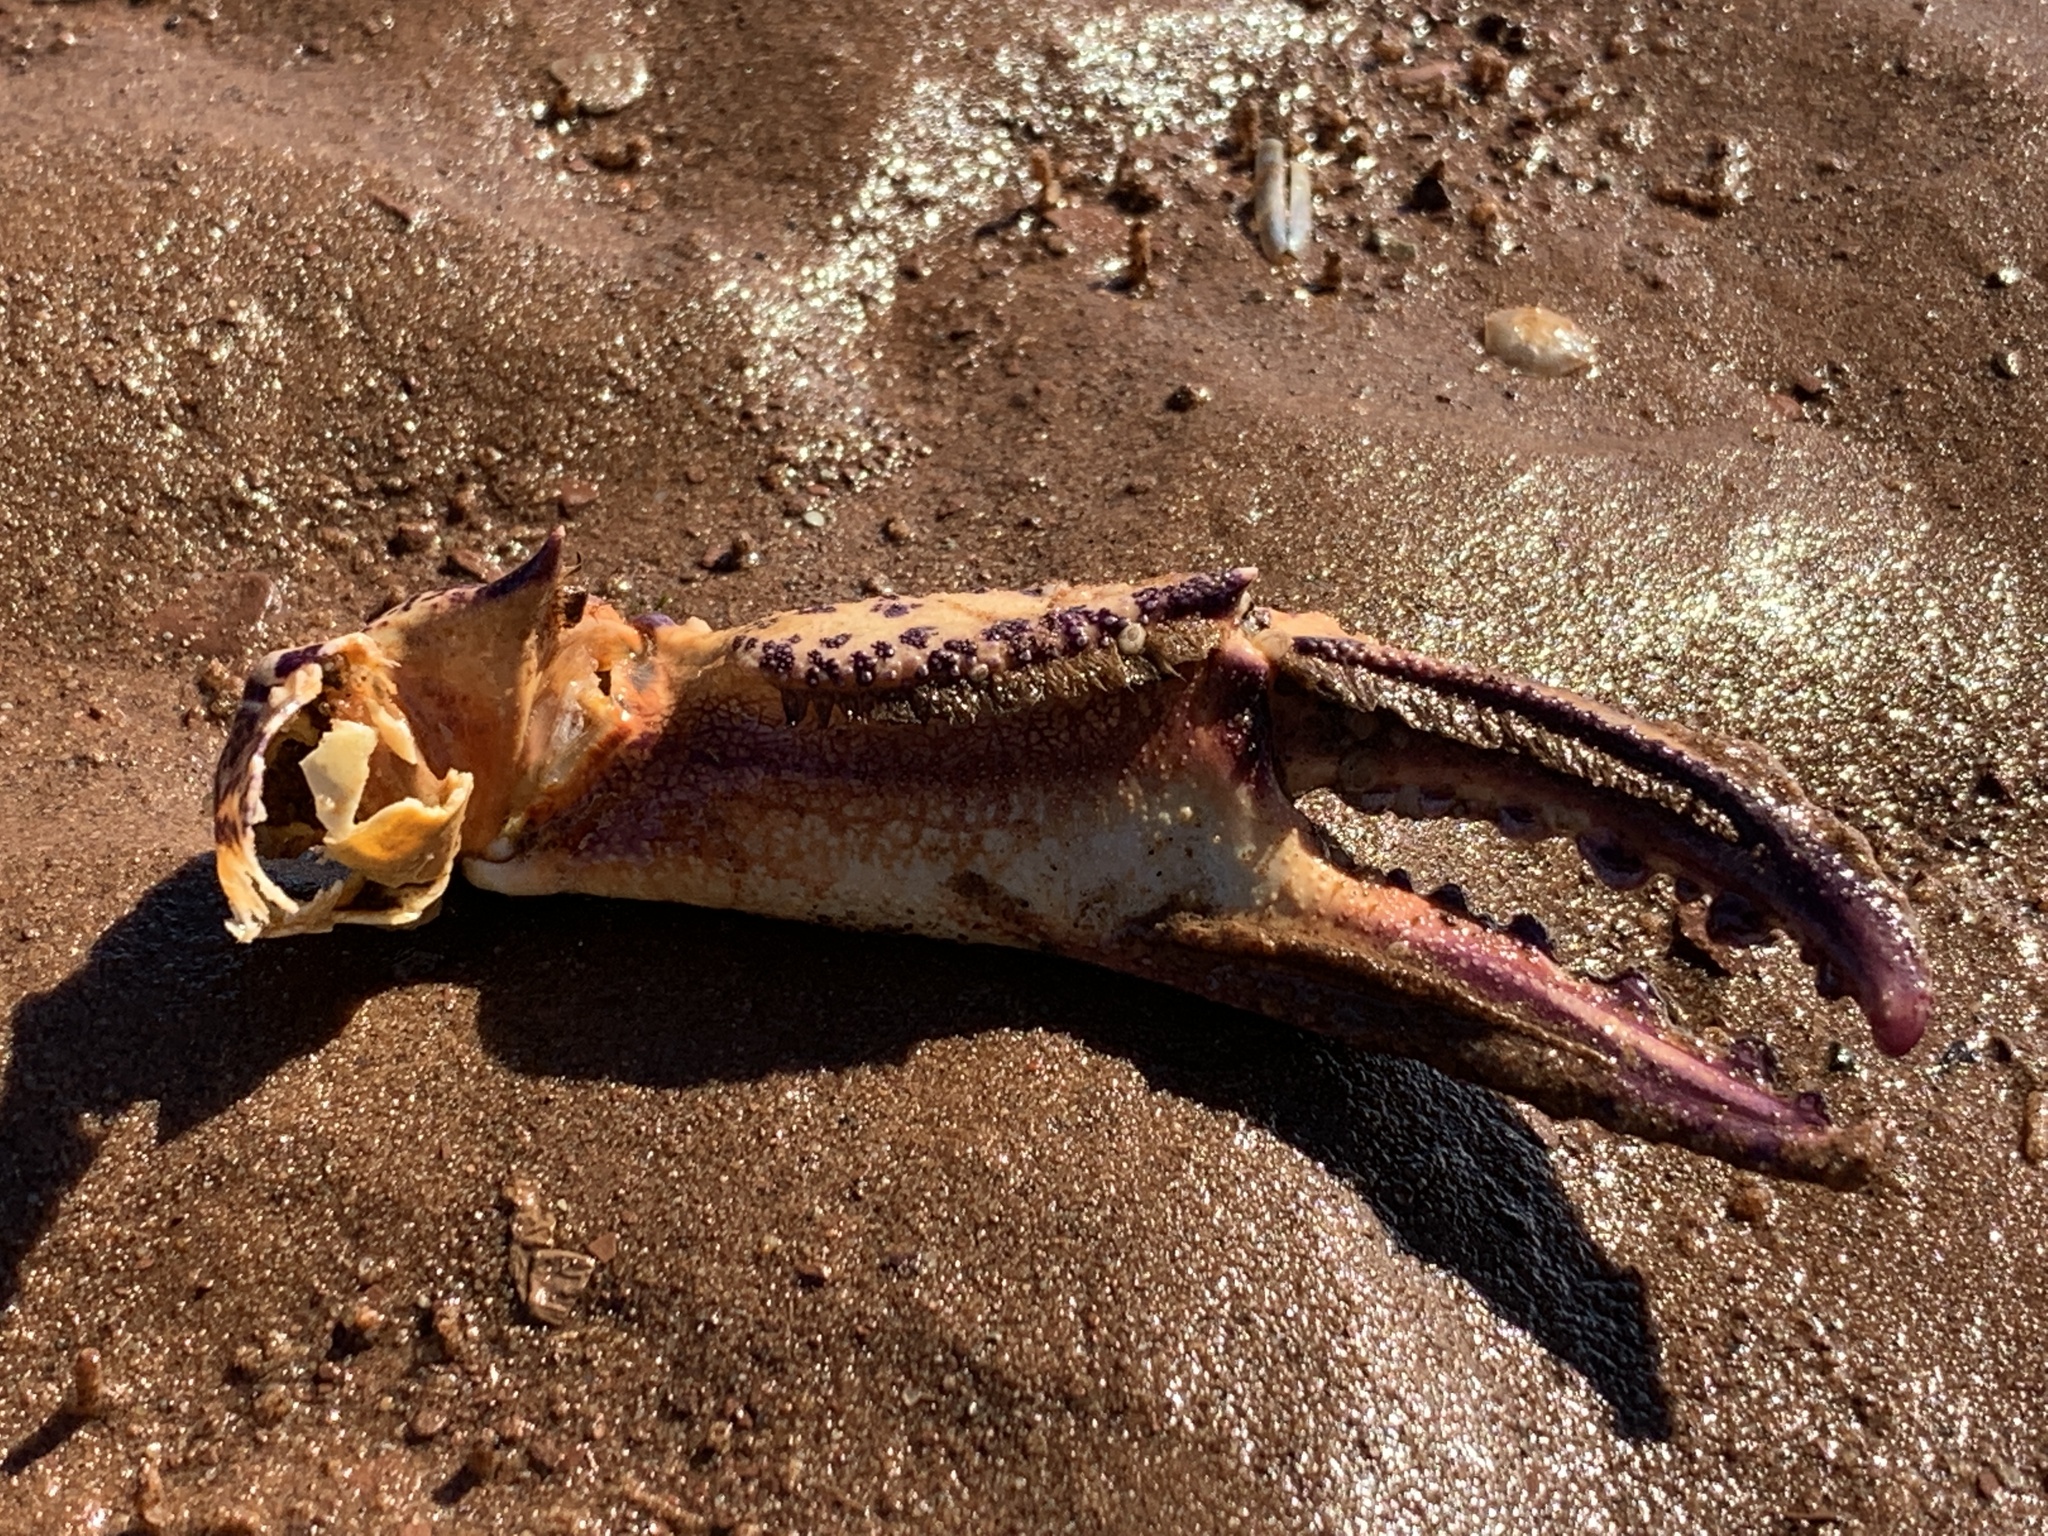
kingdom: Animalia
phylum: Arthropoda
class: Malacostraca
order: Decapoda
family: Ovalipidae
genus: Ovalipes
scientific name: Ovalipes ocellatus
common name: Lady crab
